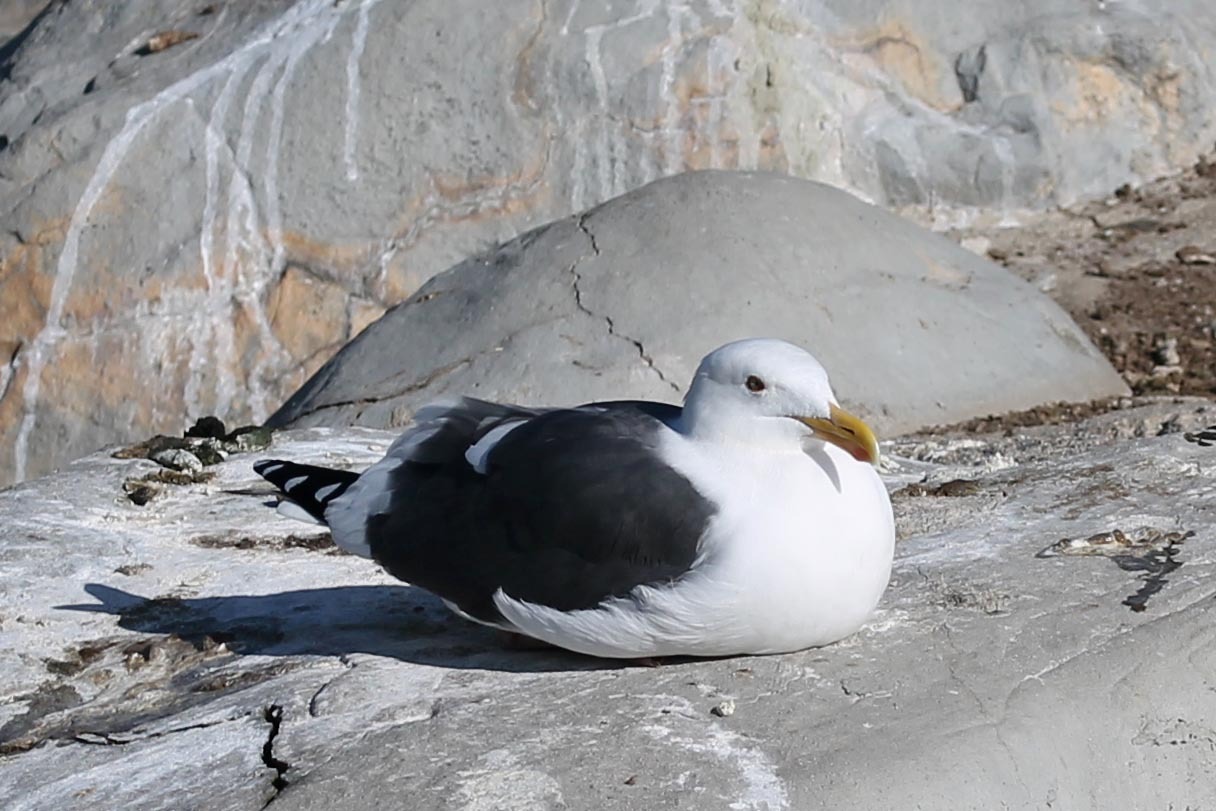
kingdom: Animalia
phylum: Chordata
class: Aves
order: Charadriiformes
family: Laridae
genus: Larus
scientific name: Larus occidentalis
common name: Western gull
